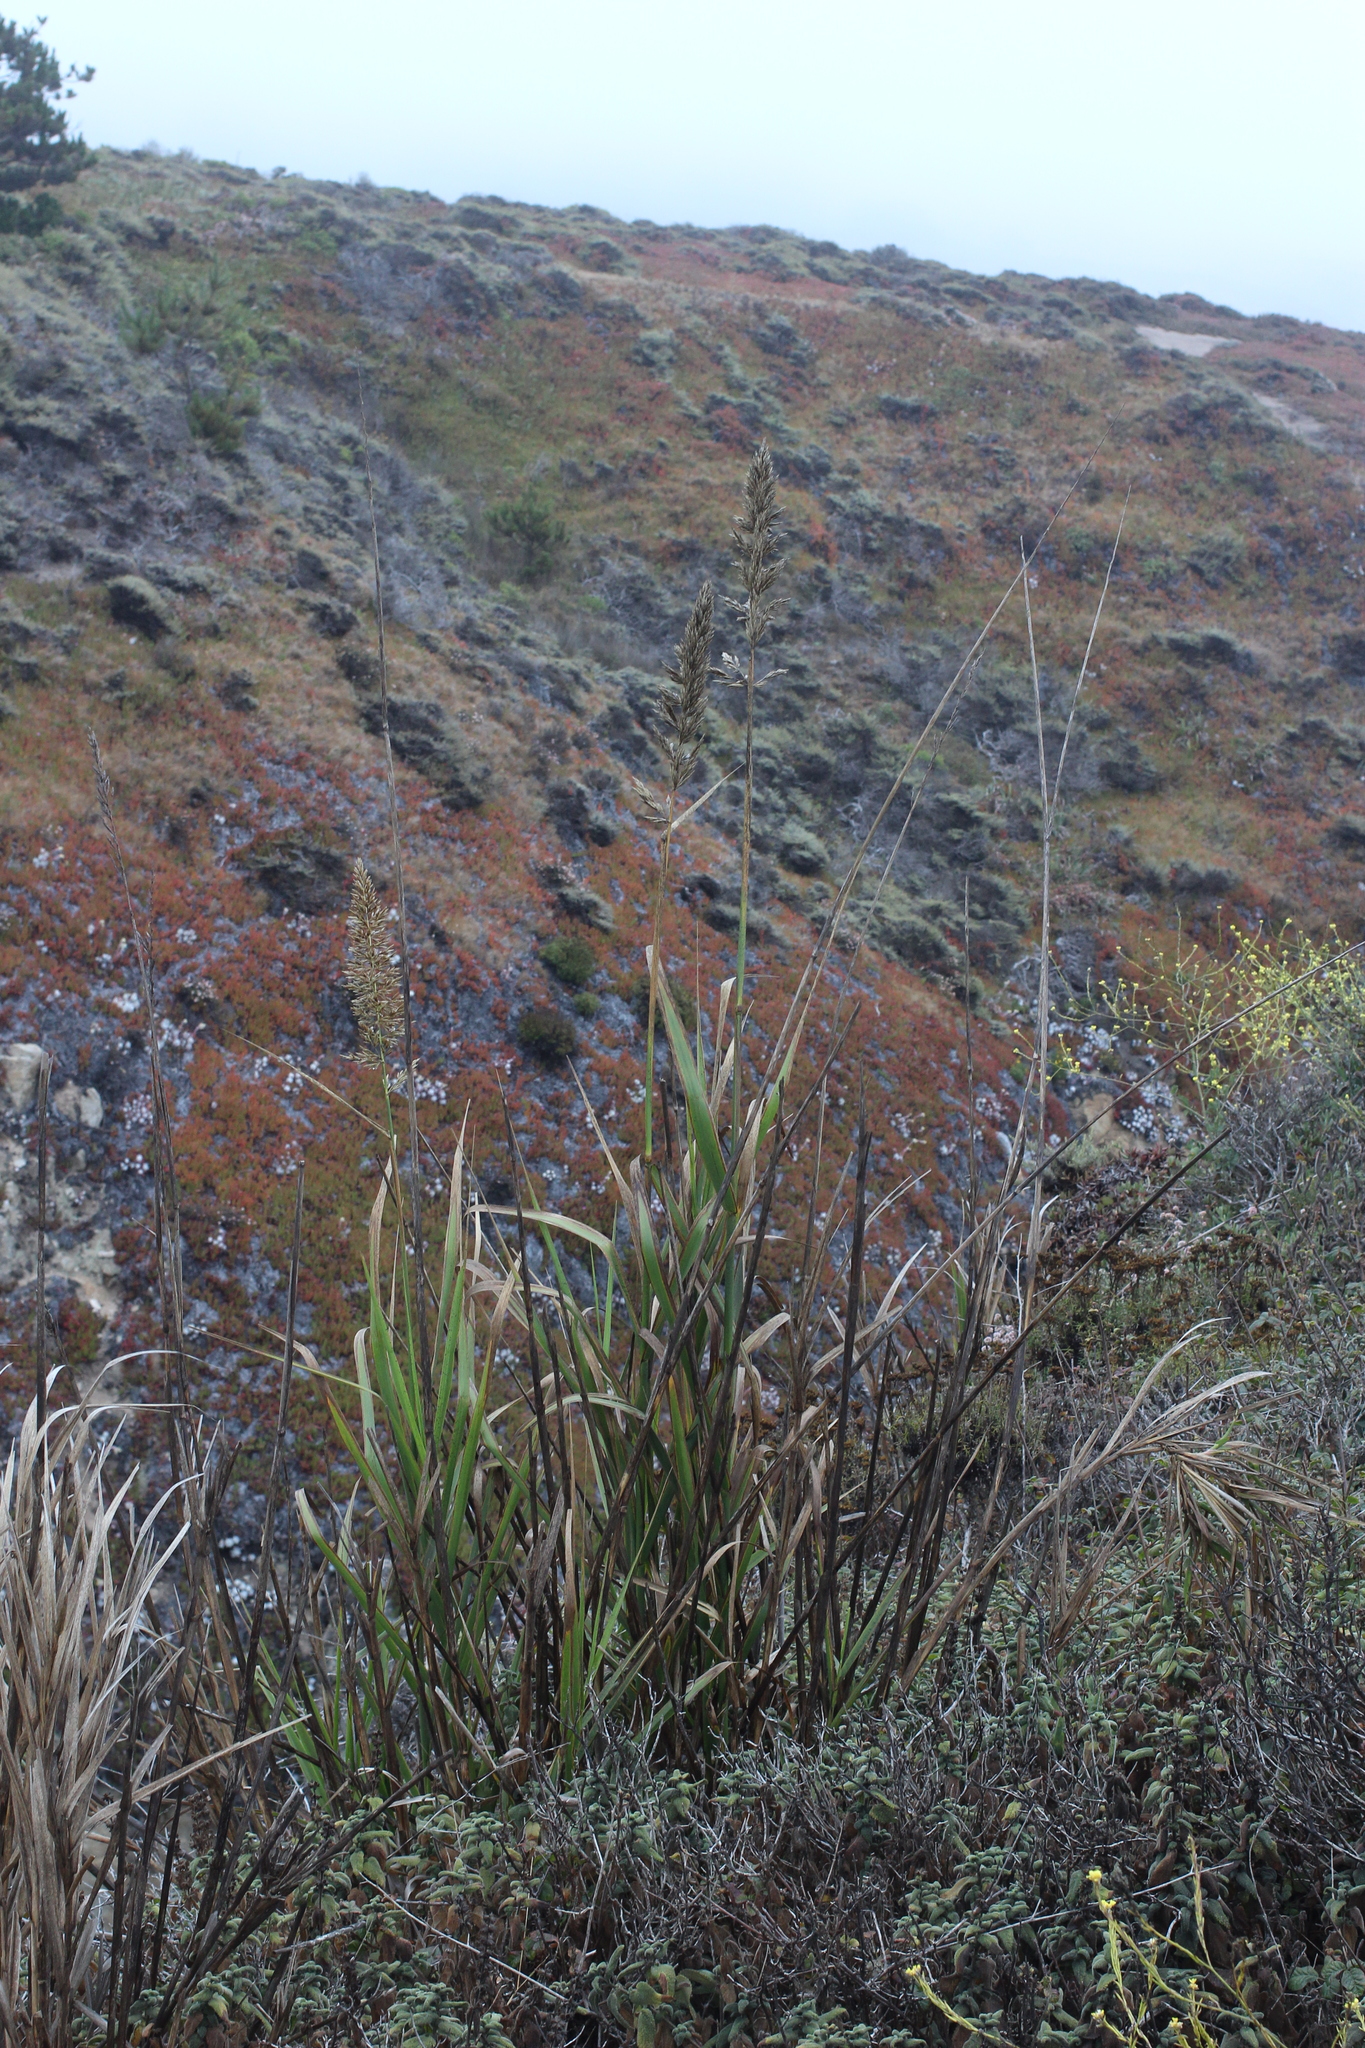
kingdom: Plantae
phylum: Tracheophyta
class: Liliopsida
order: Poales
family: Poaceae
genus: Leymus
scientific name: Leymus condensatus
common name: Giant wild rye
